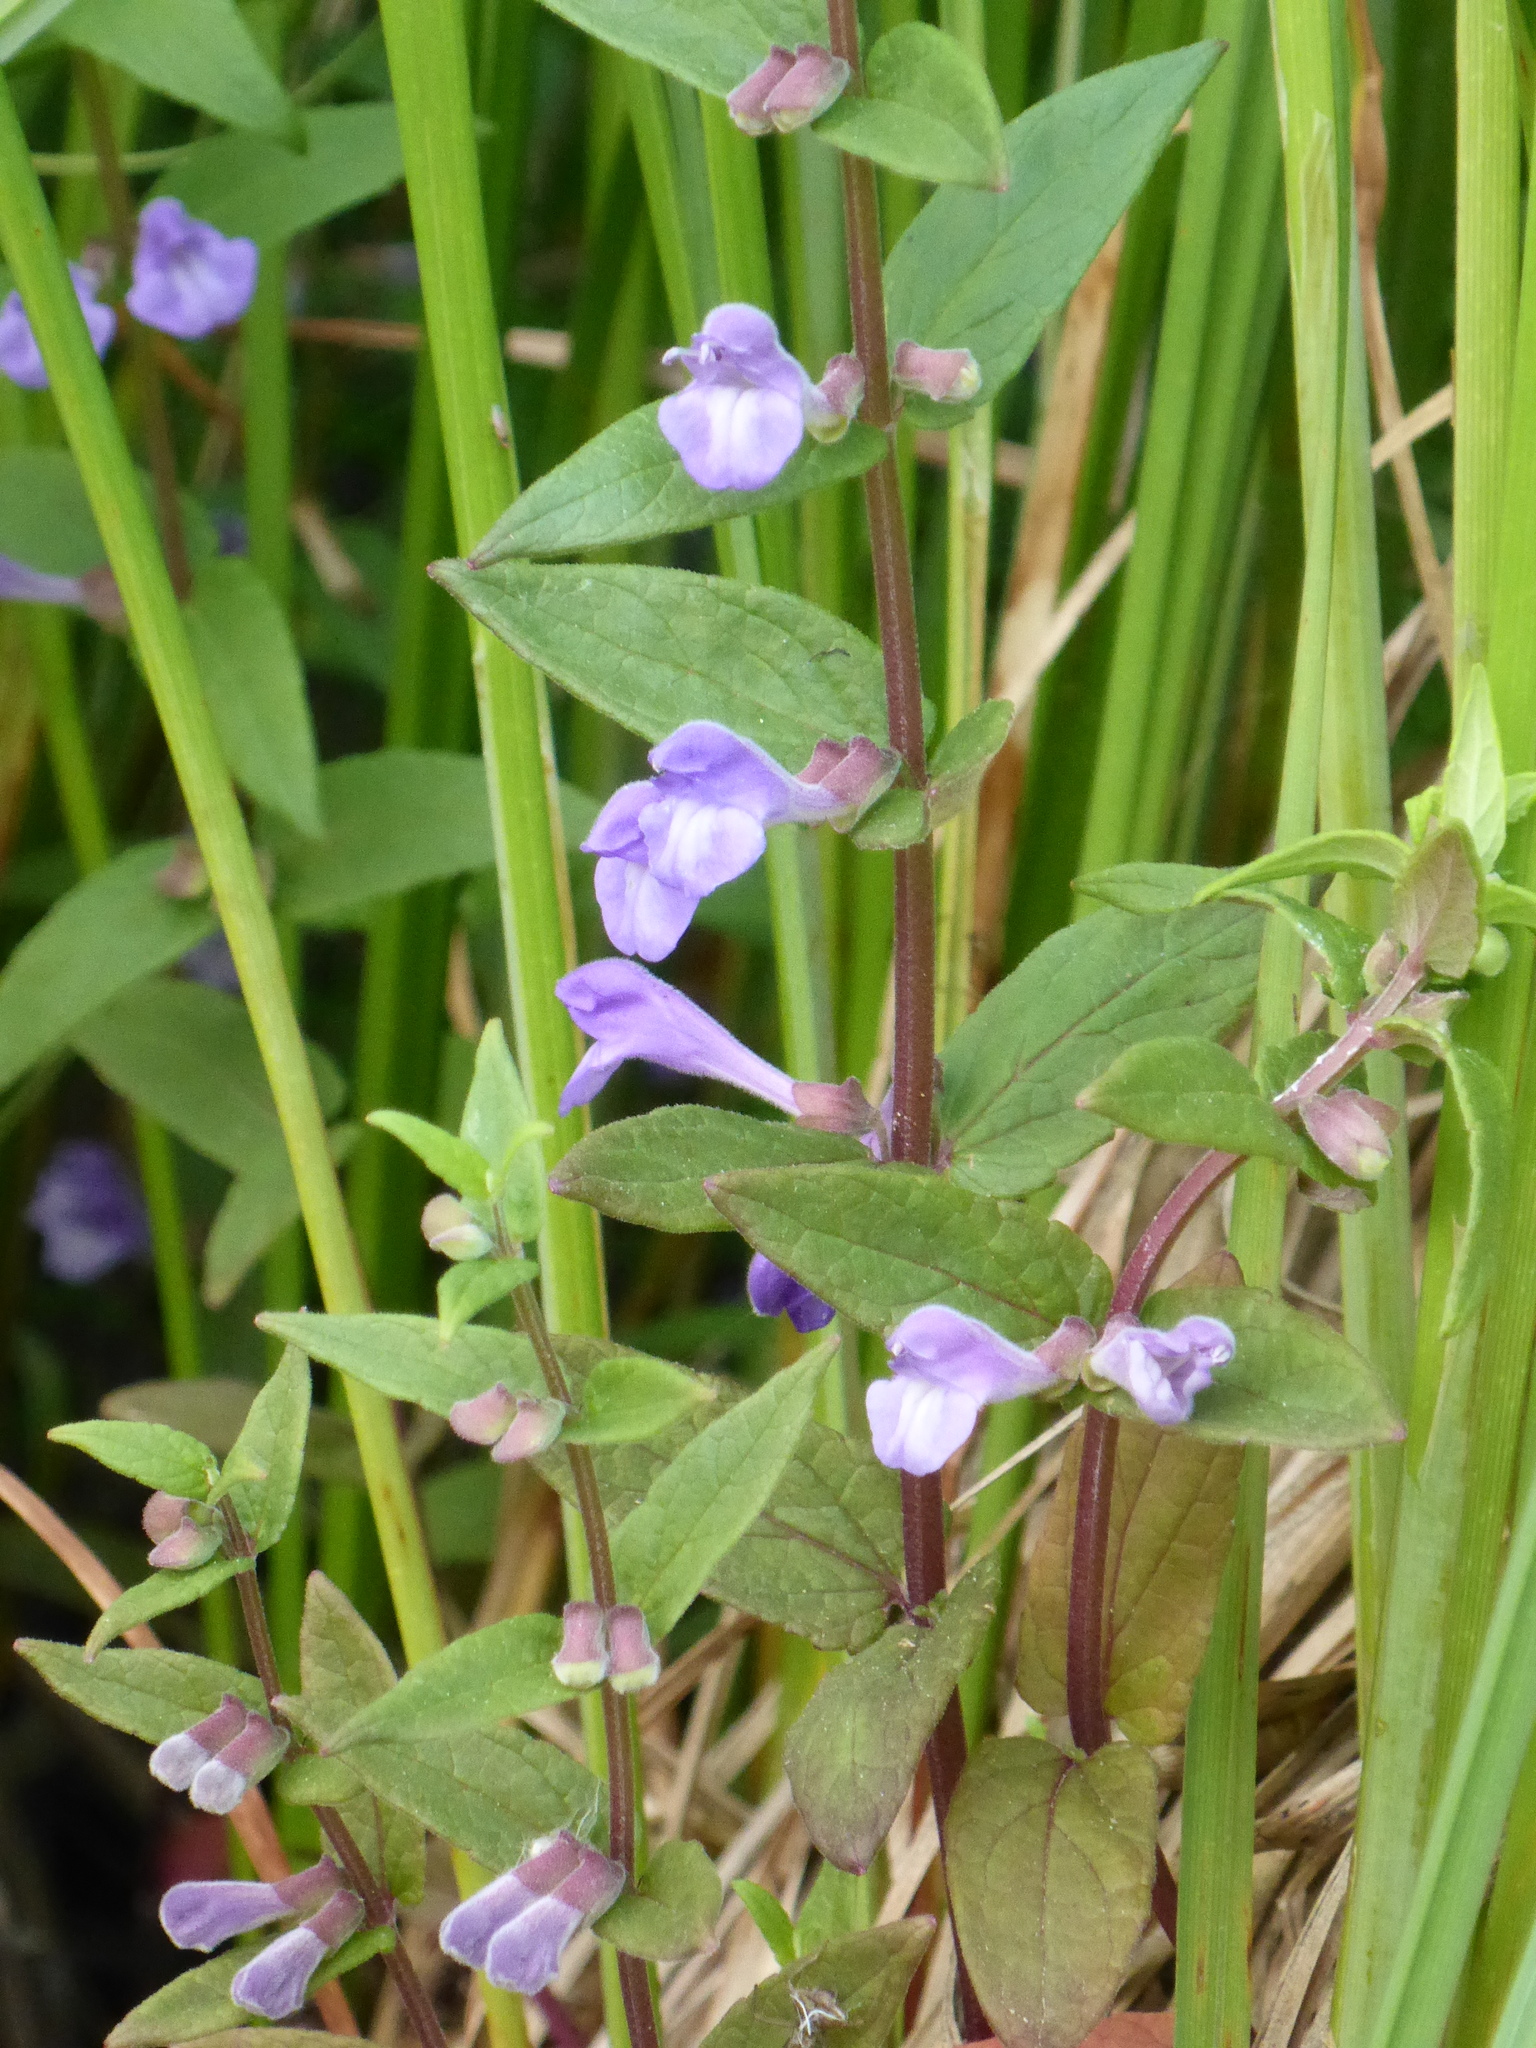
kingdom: Plantae
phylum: Tracheophyta
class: Magnoliopsida
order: Lamiales
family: Lamiaceae
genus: Scutellaria
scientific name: Scutellaria galericulata
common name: Skullcap
